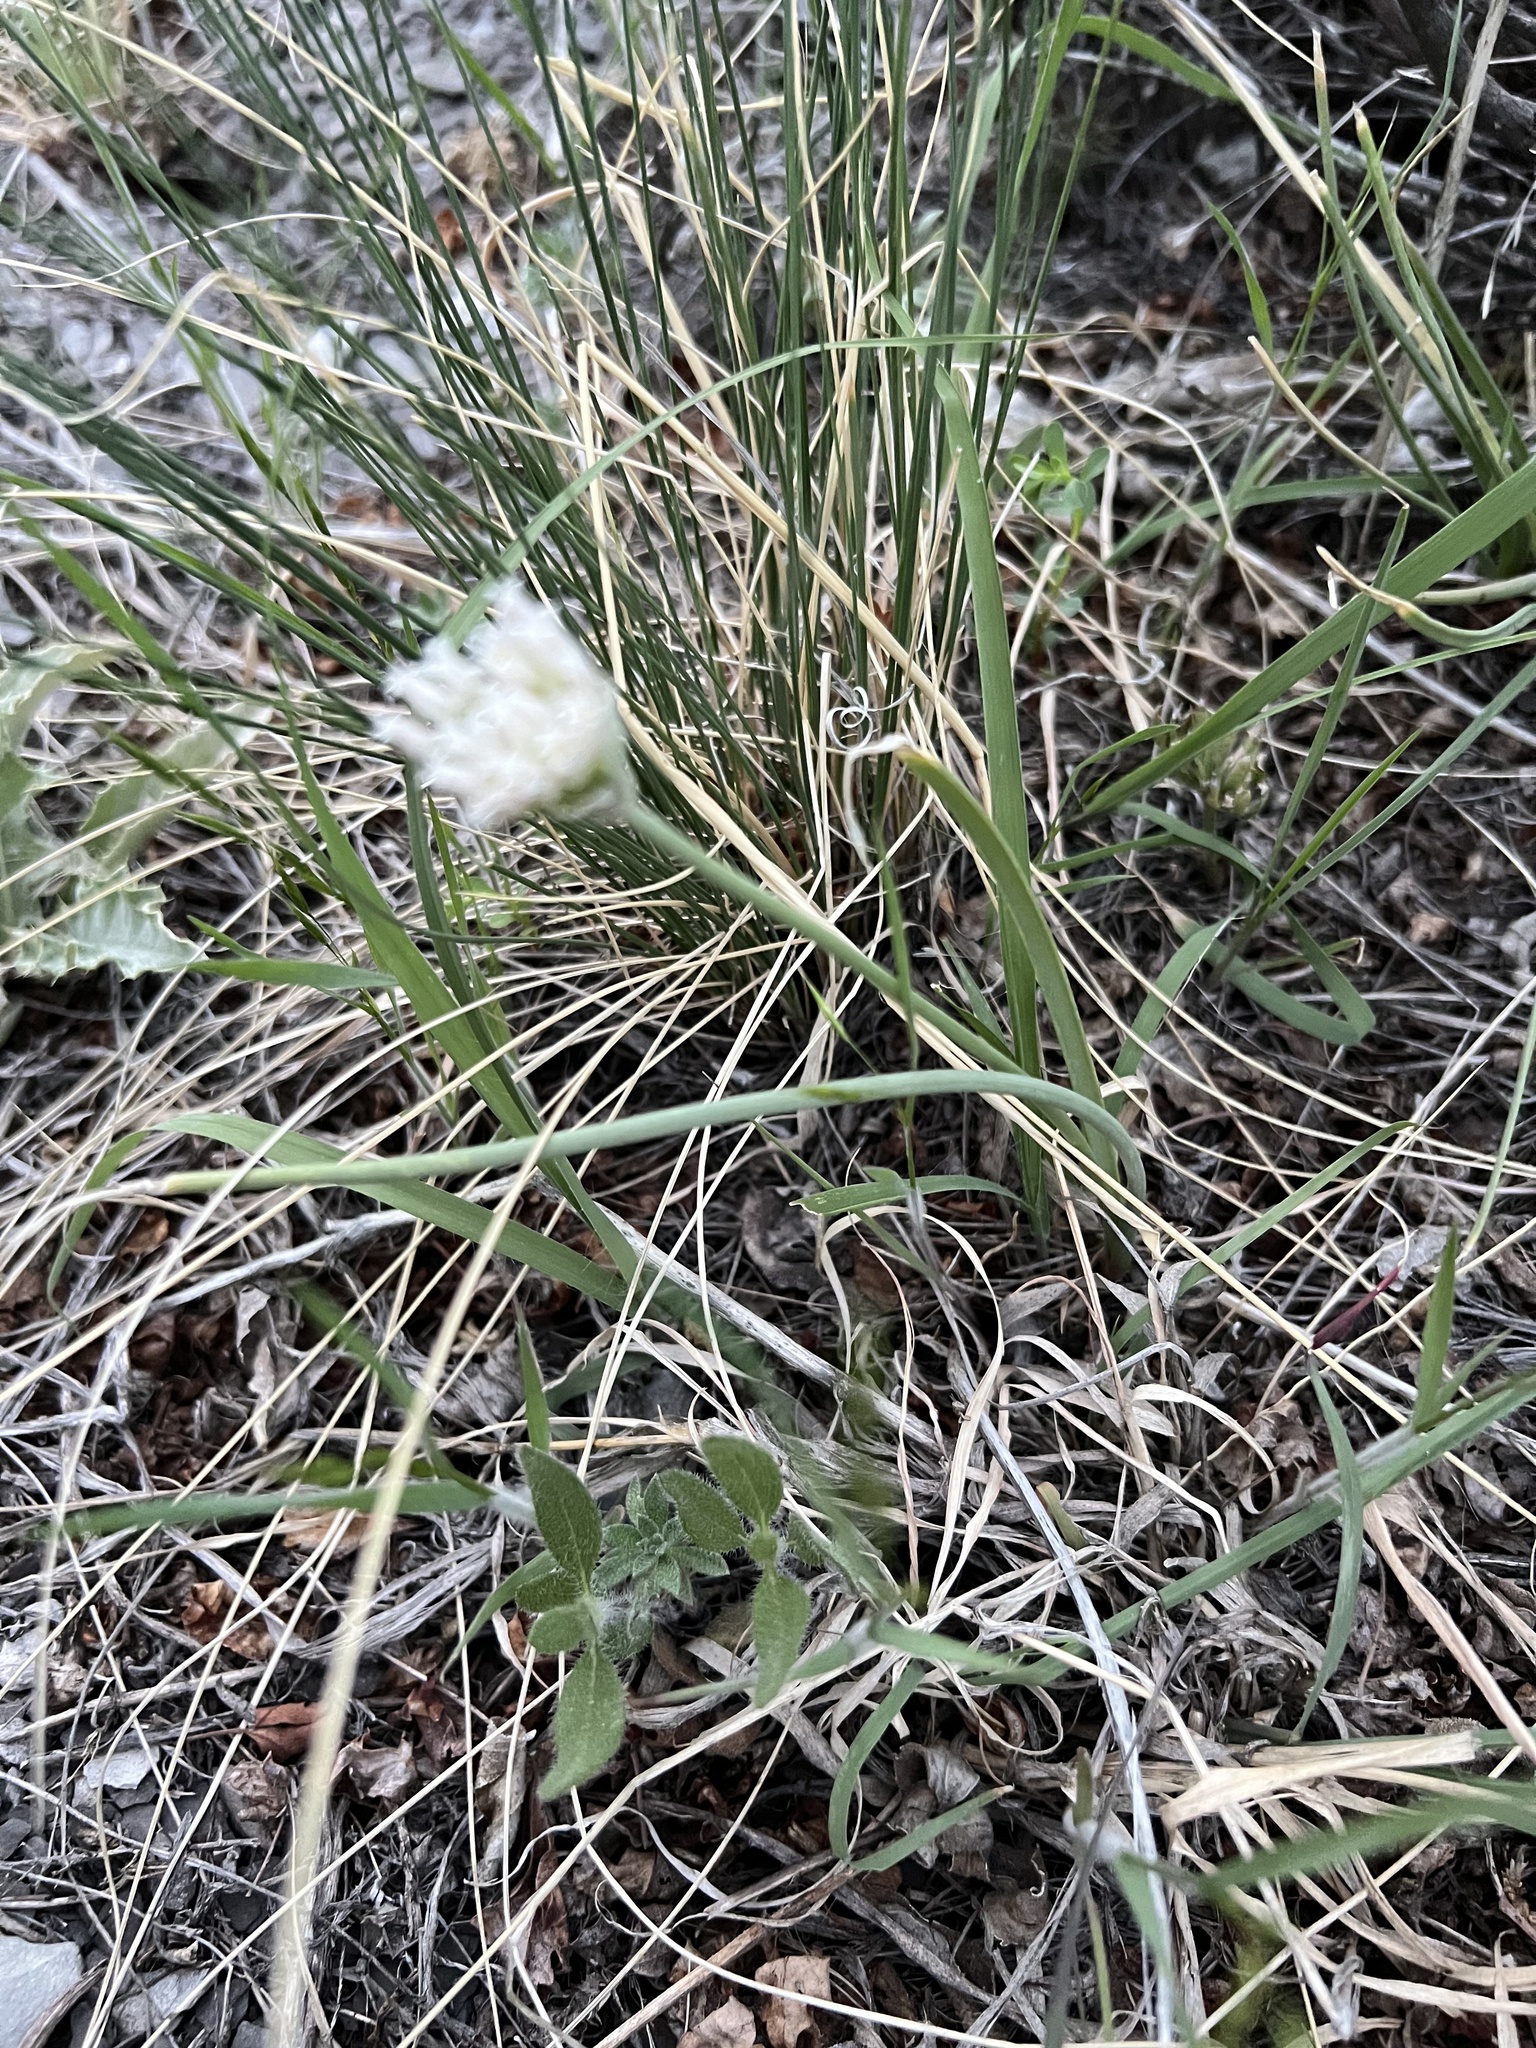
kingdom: Plantae
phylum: Tracheophyta
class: Liliopsida
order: Asparagales
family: Amaryllidaceae
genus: Allium
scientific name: Allium textile
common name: Prairie onion
